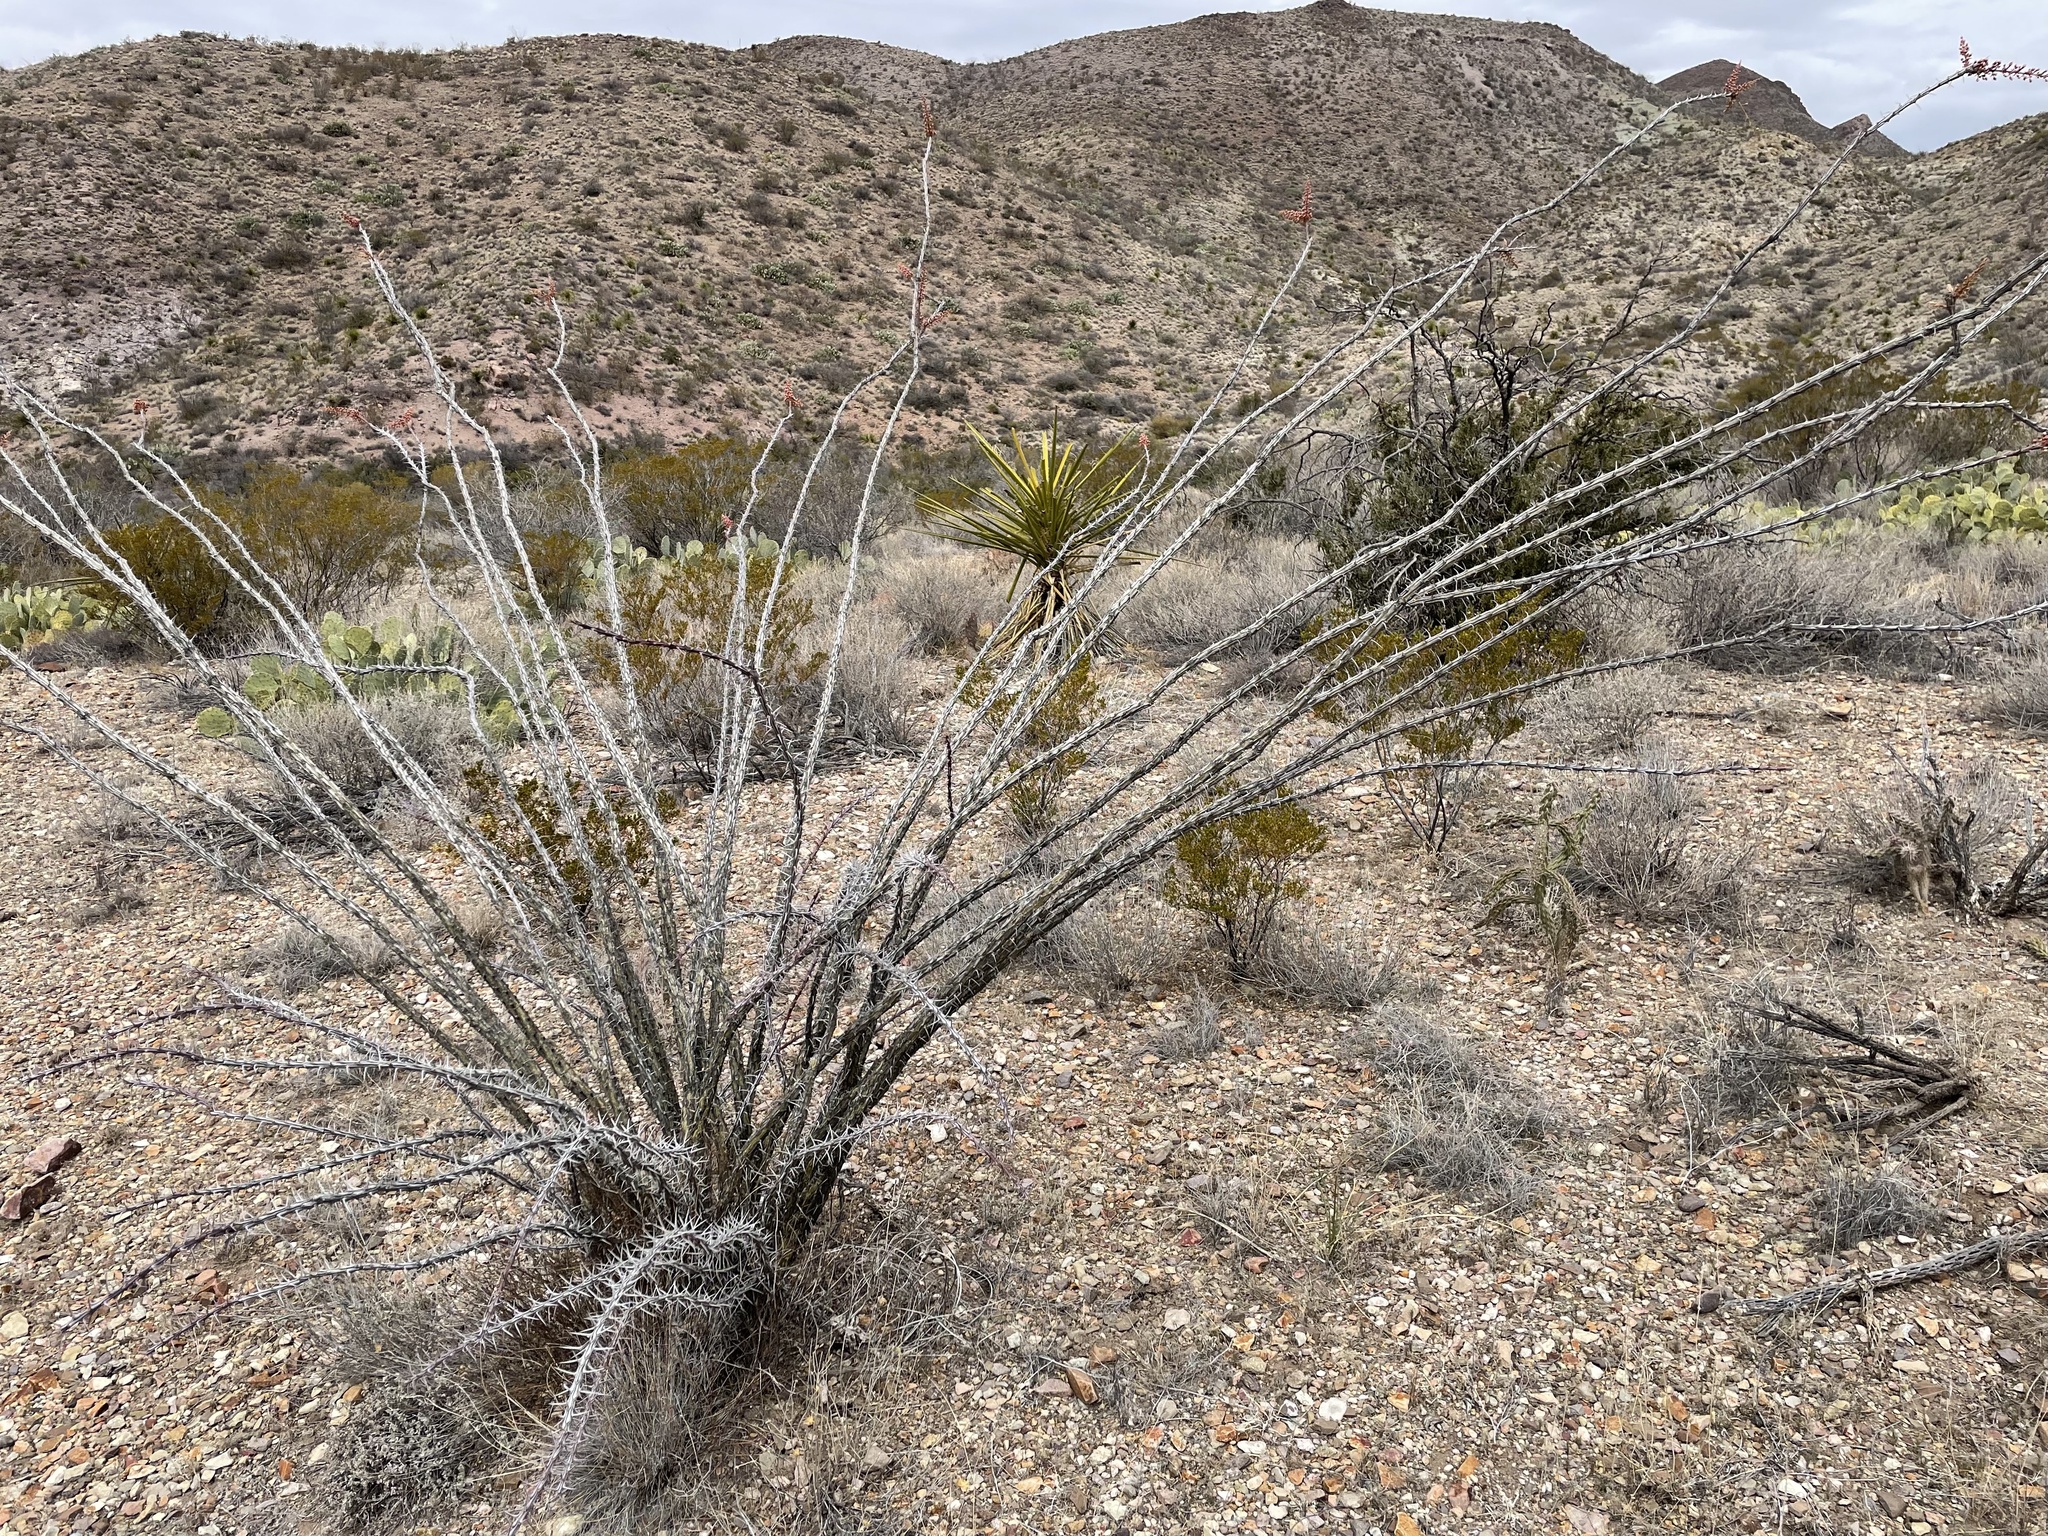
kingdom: Plantae
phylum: Tracheophyta
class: Magnoliopsida
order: Ericales
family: Fouquieriaceae
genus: Fouquieria
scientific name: Fouquieria splendens
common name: Vine-cactus
